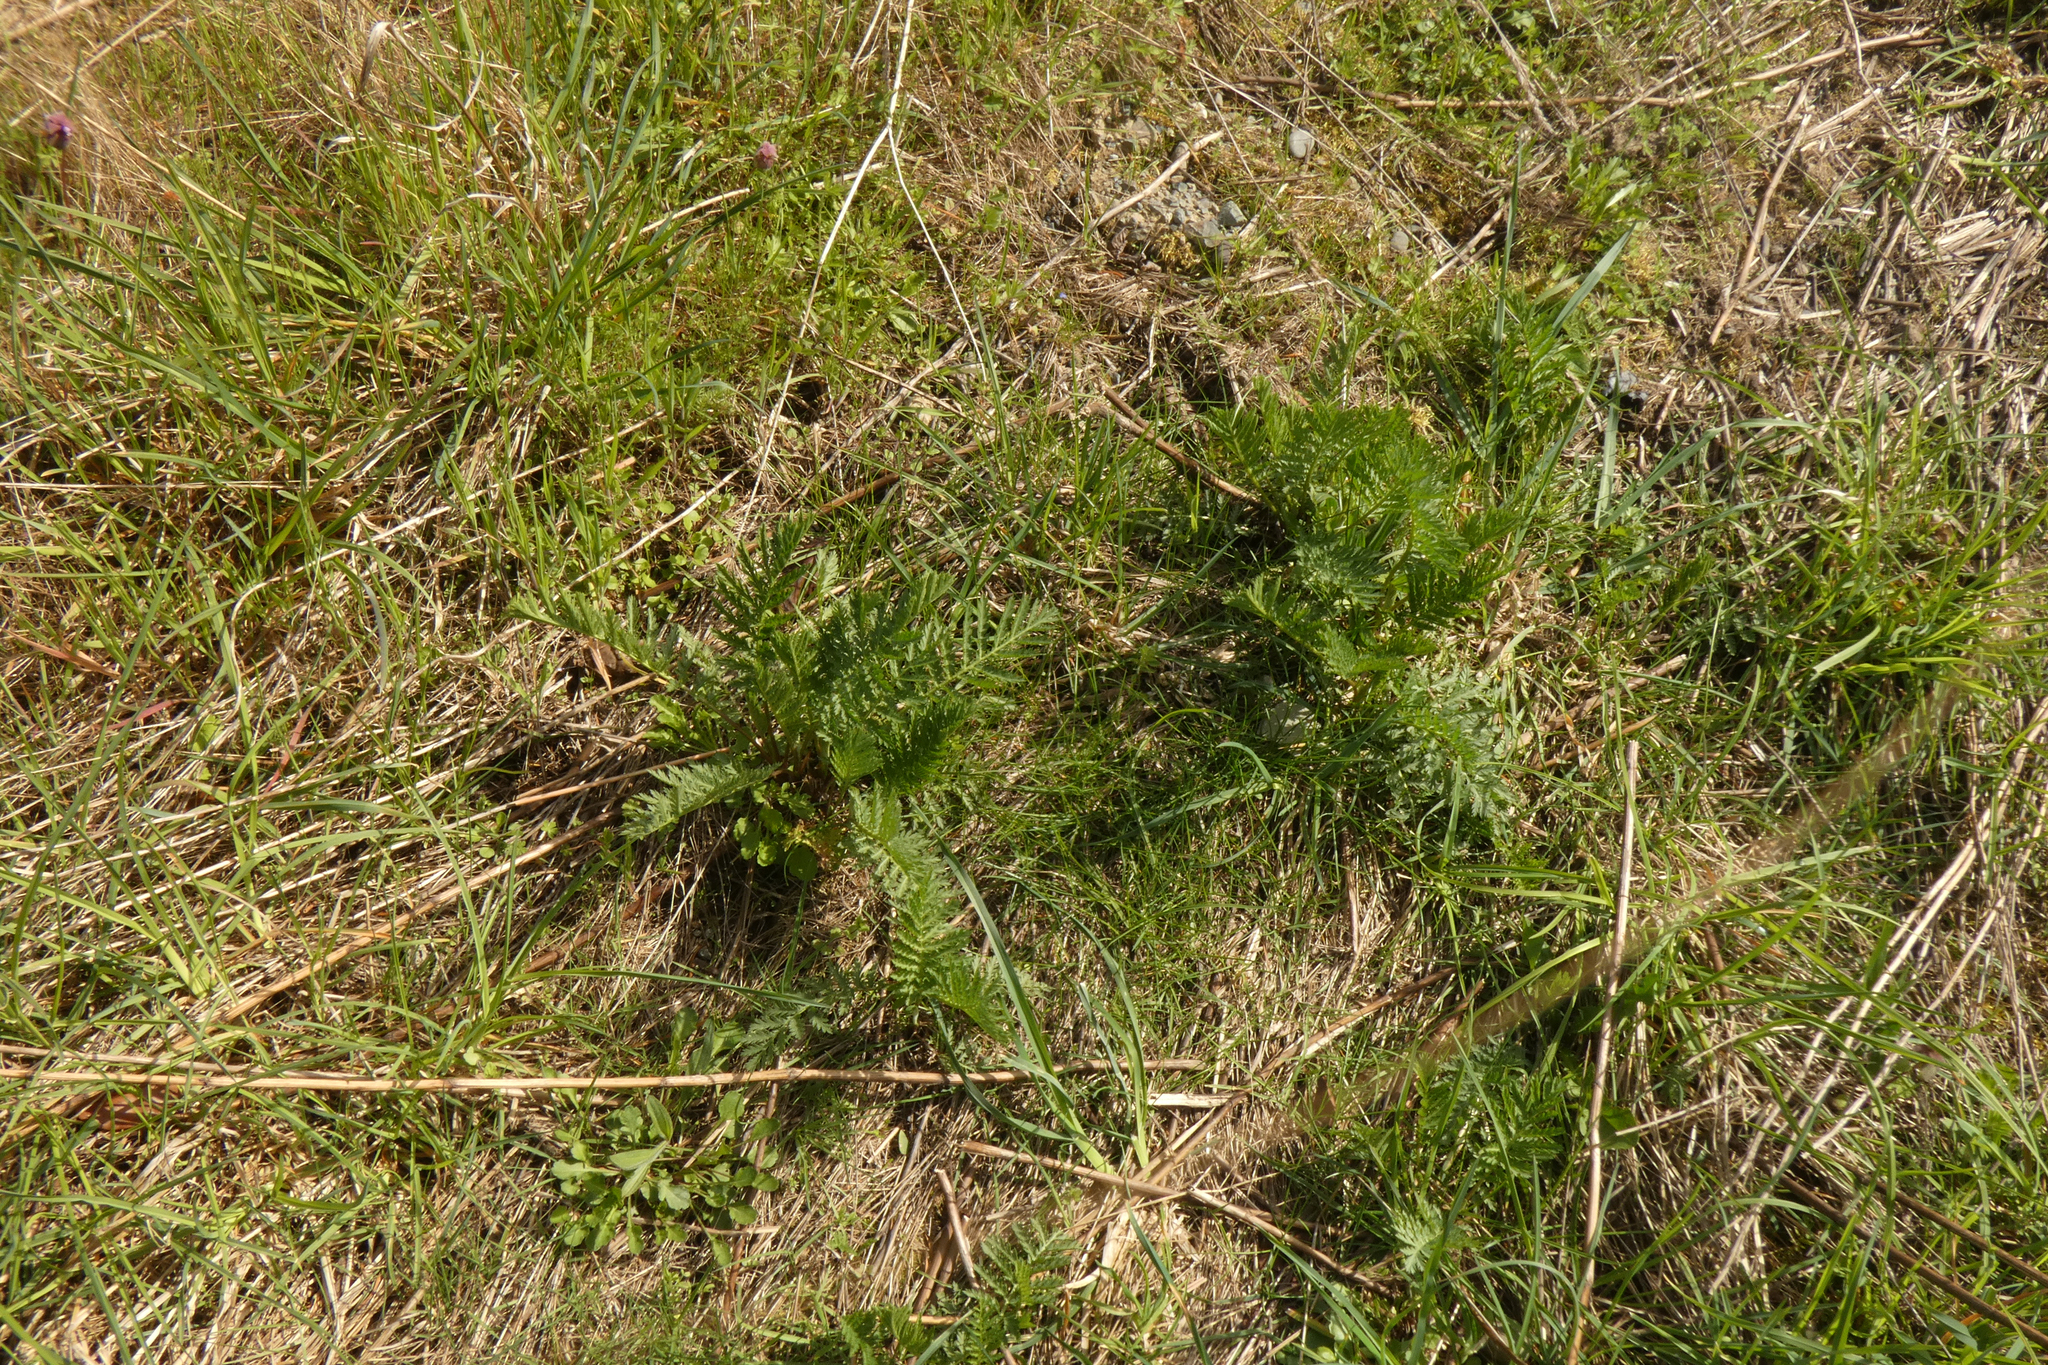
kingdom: Plantae
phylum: Tracheophyta
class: Magnoliopsida
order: Asterales
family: Asteraceae
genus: Tanacetum
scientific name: Tanacetum vulgare
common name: Common tansy
